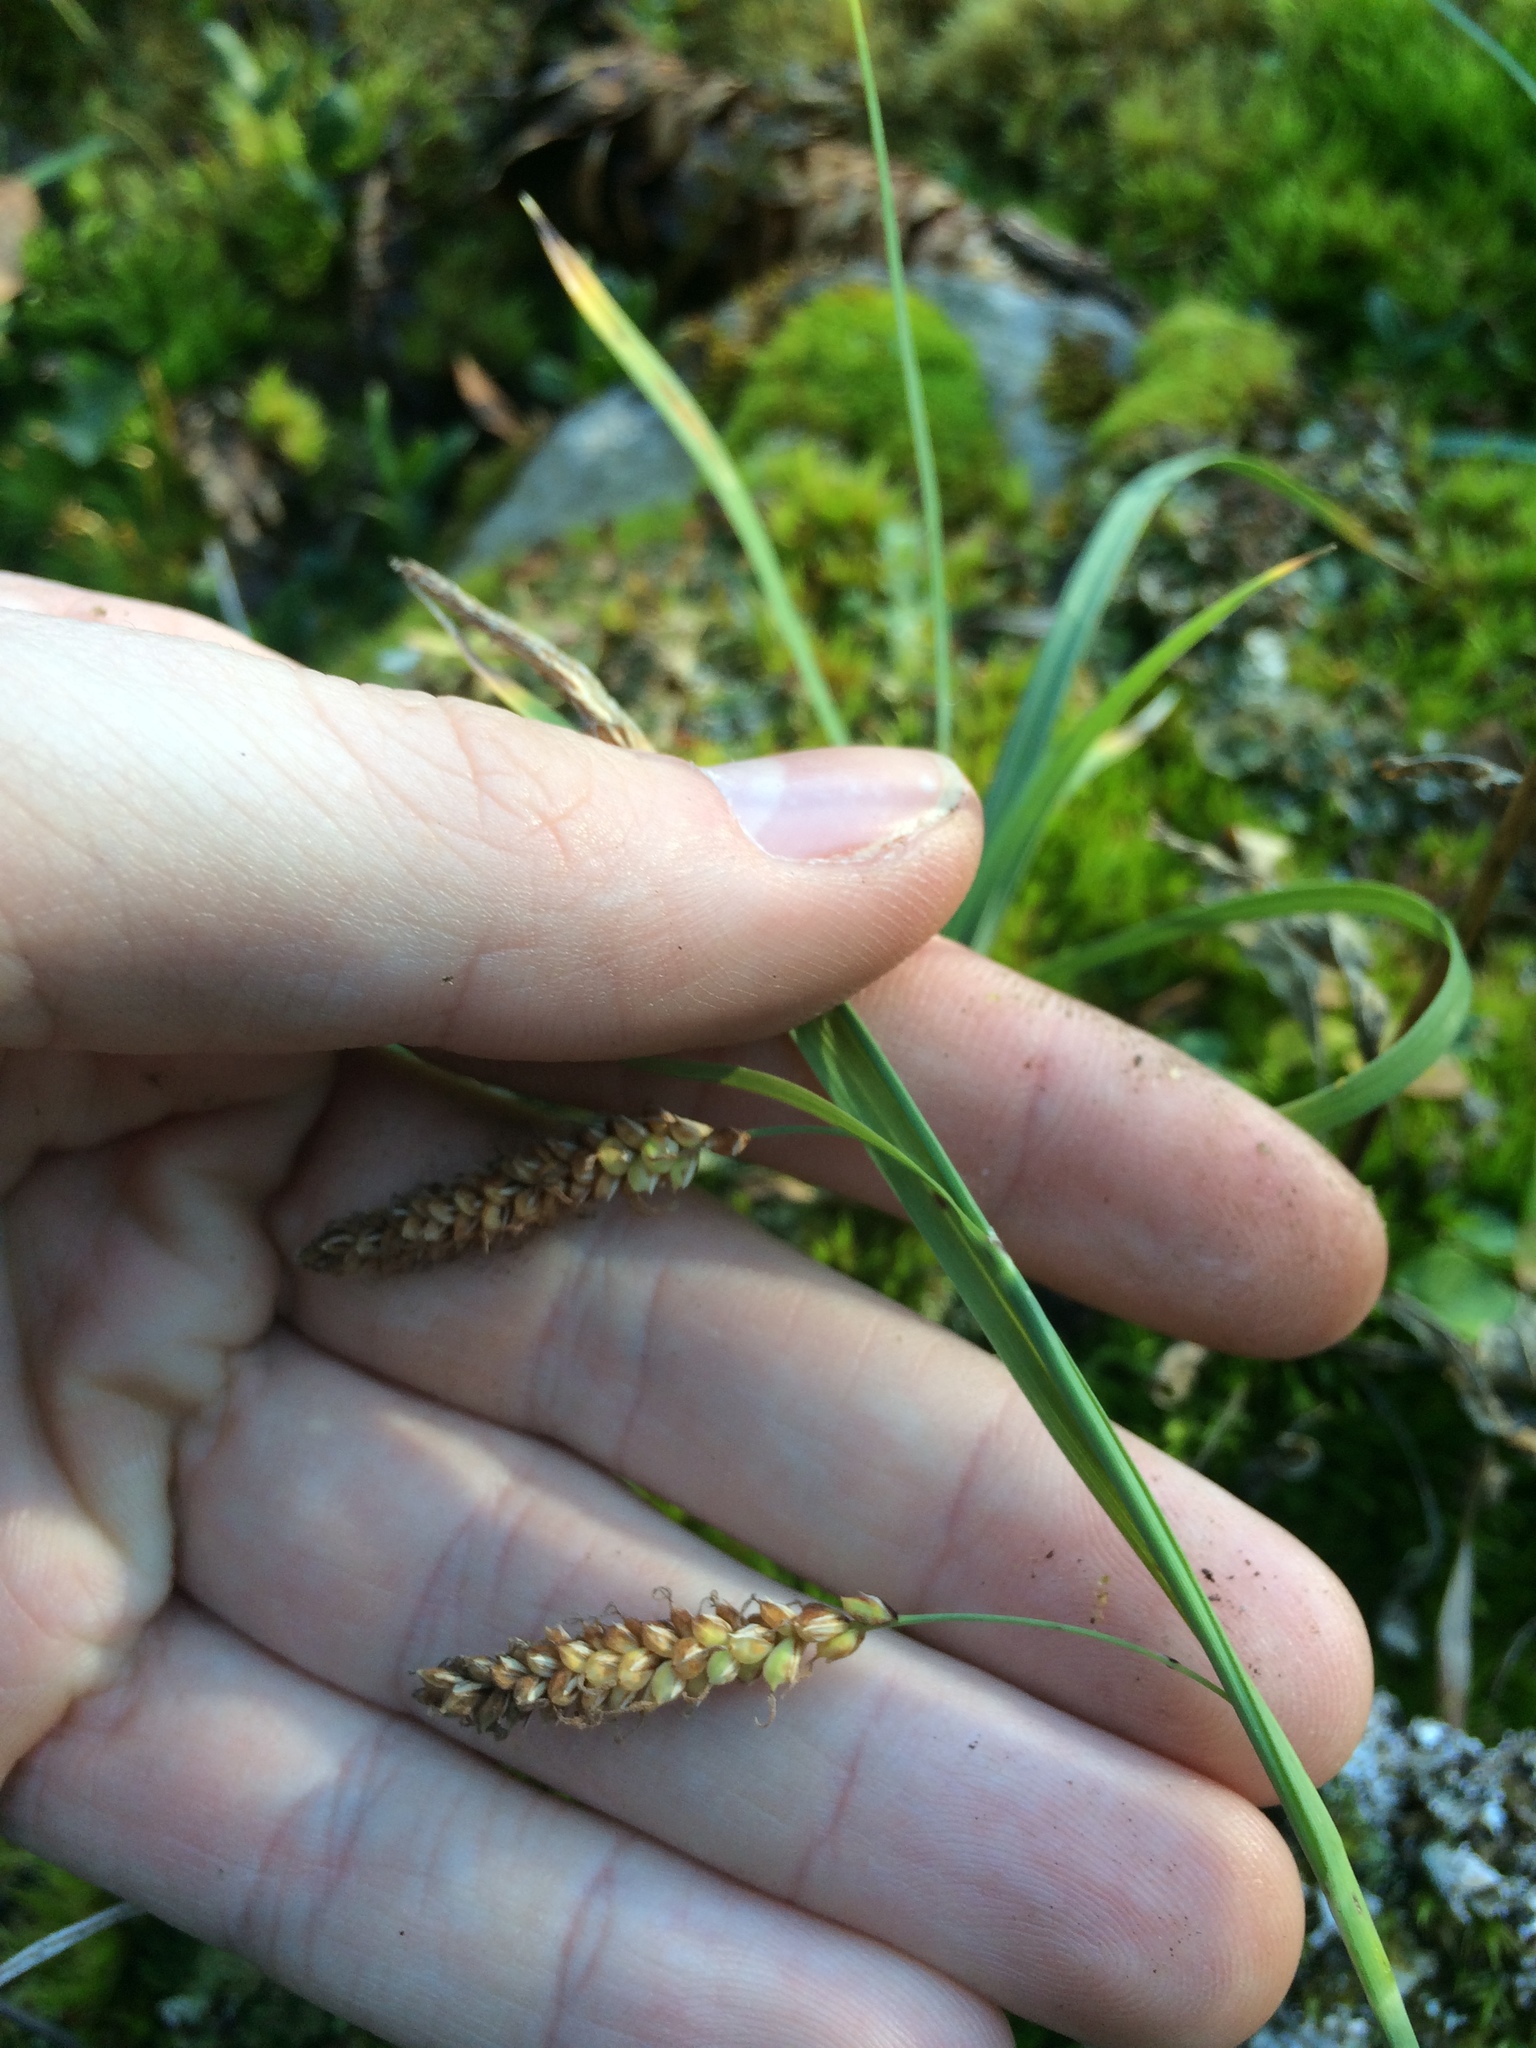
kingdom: Plantae
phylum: Tracheophyta
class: Liliopsida
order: Poales
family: Cyperaceae
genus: Carex
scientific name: Carex flacca
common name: Glaucous sedge
